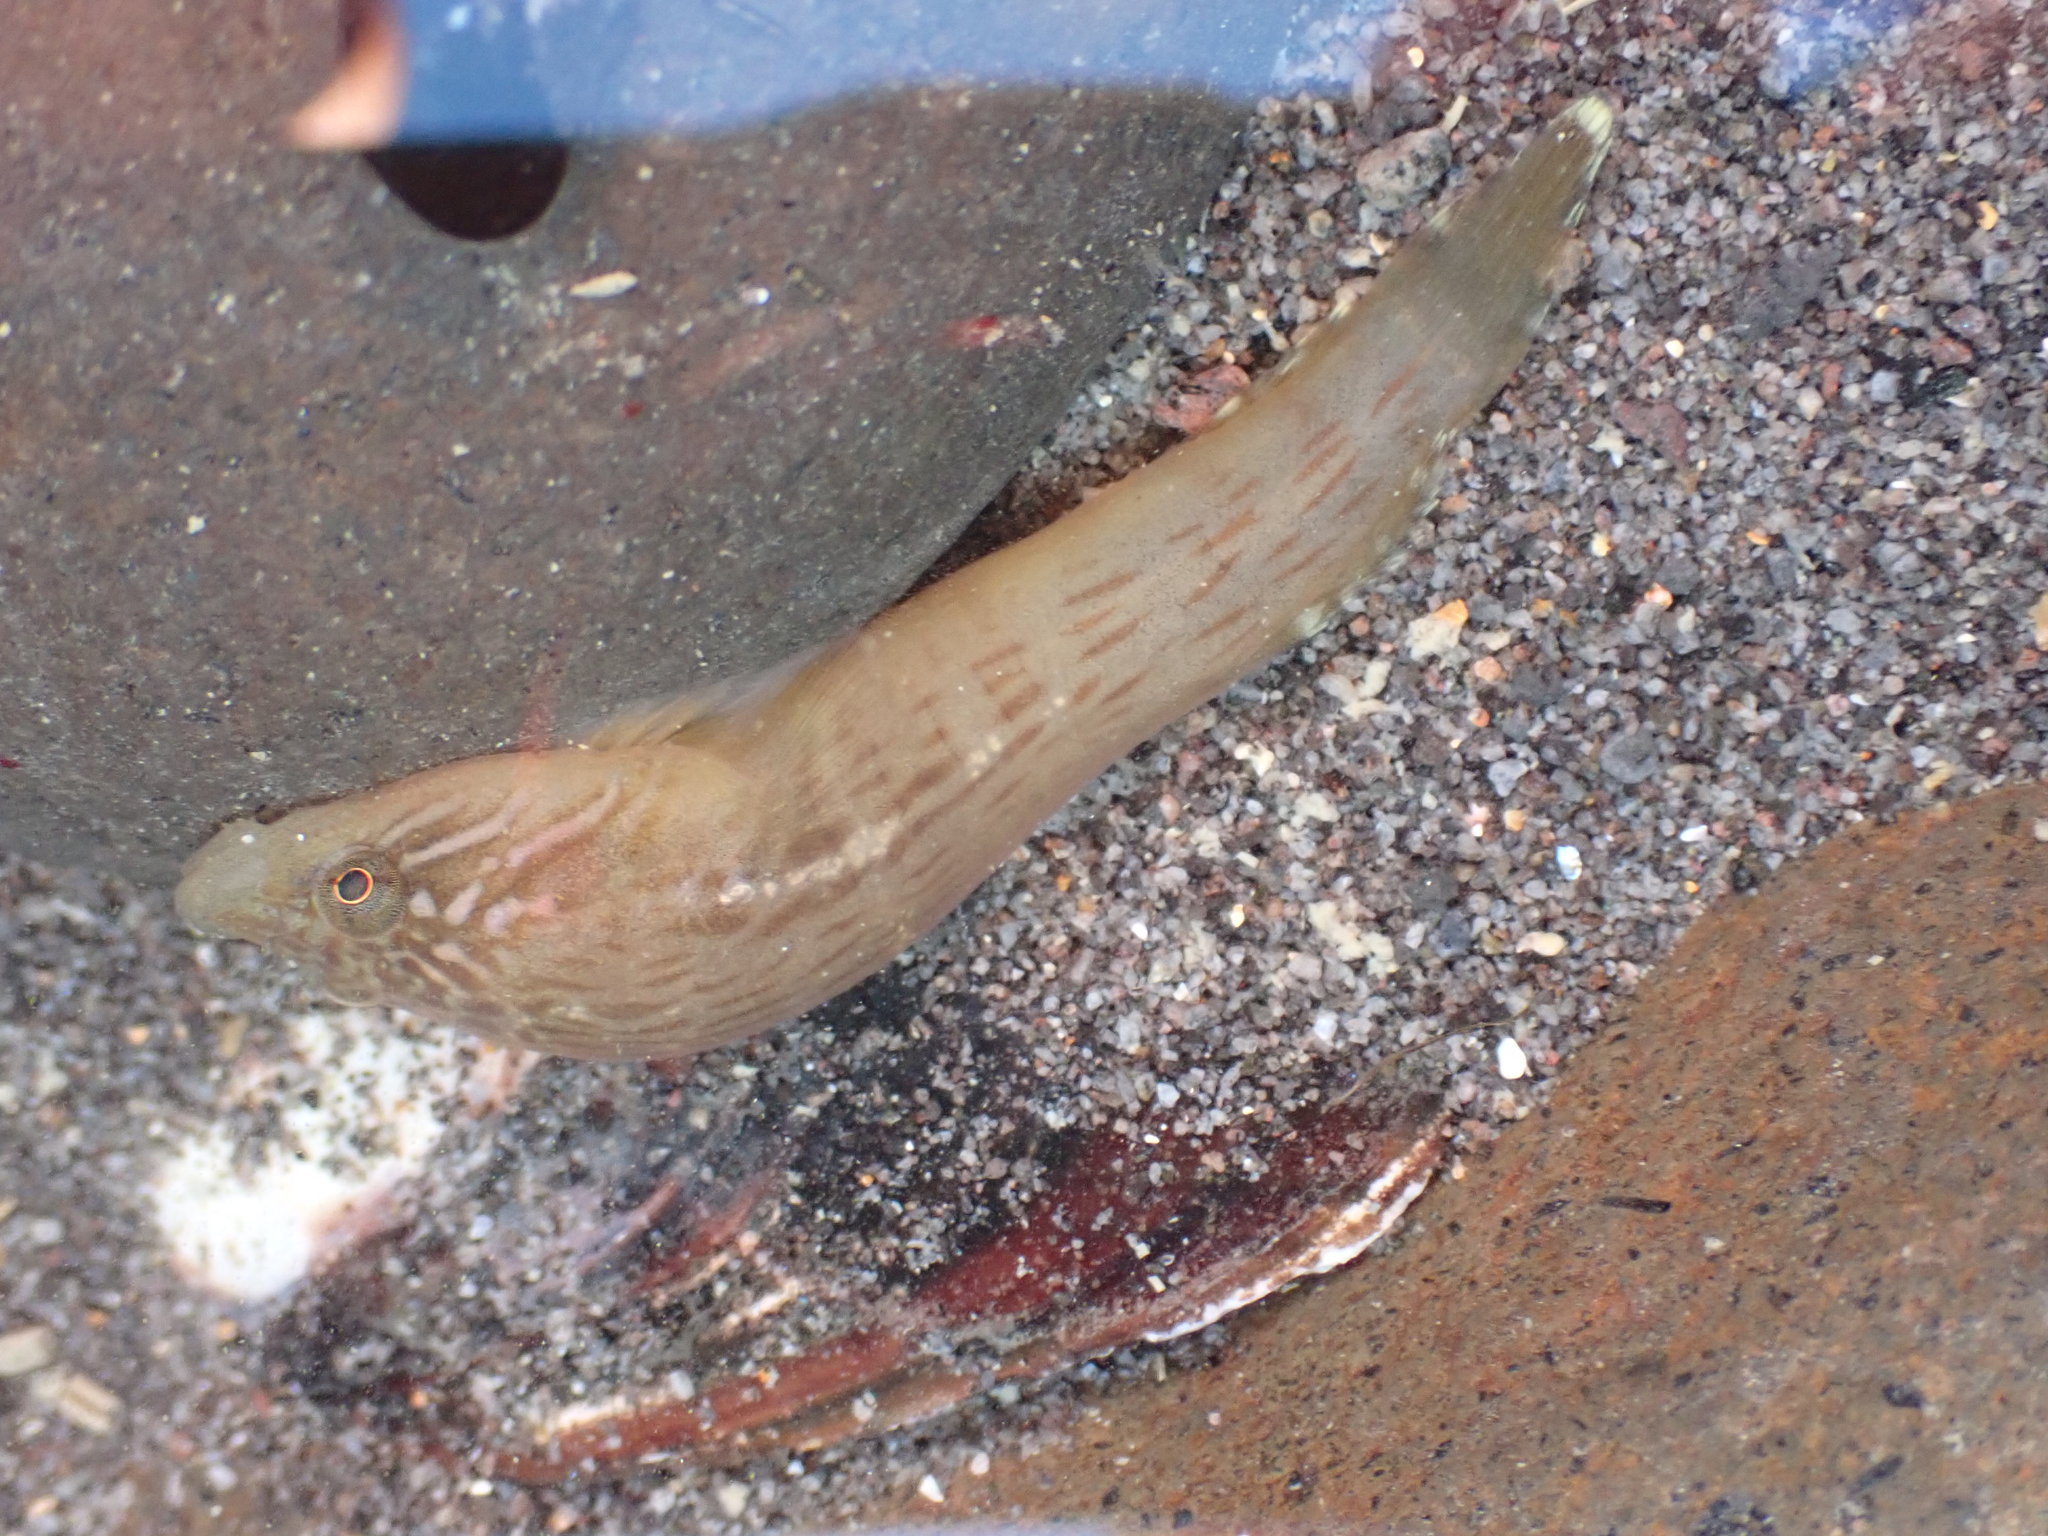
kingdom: Animalia
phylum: Chordata
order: Gobiesociformes
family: Gobiesocidae
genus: Trachelochismus
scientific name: Trachelochismus pinnulatus
